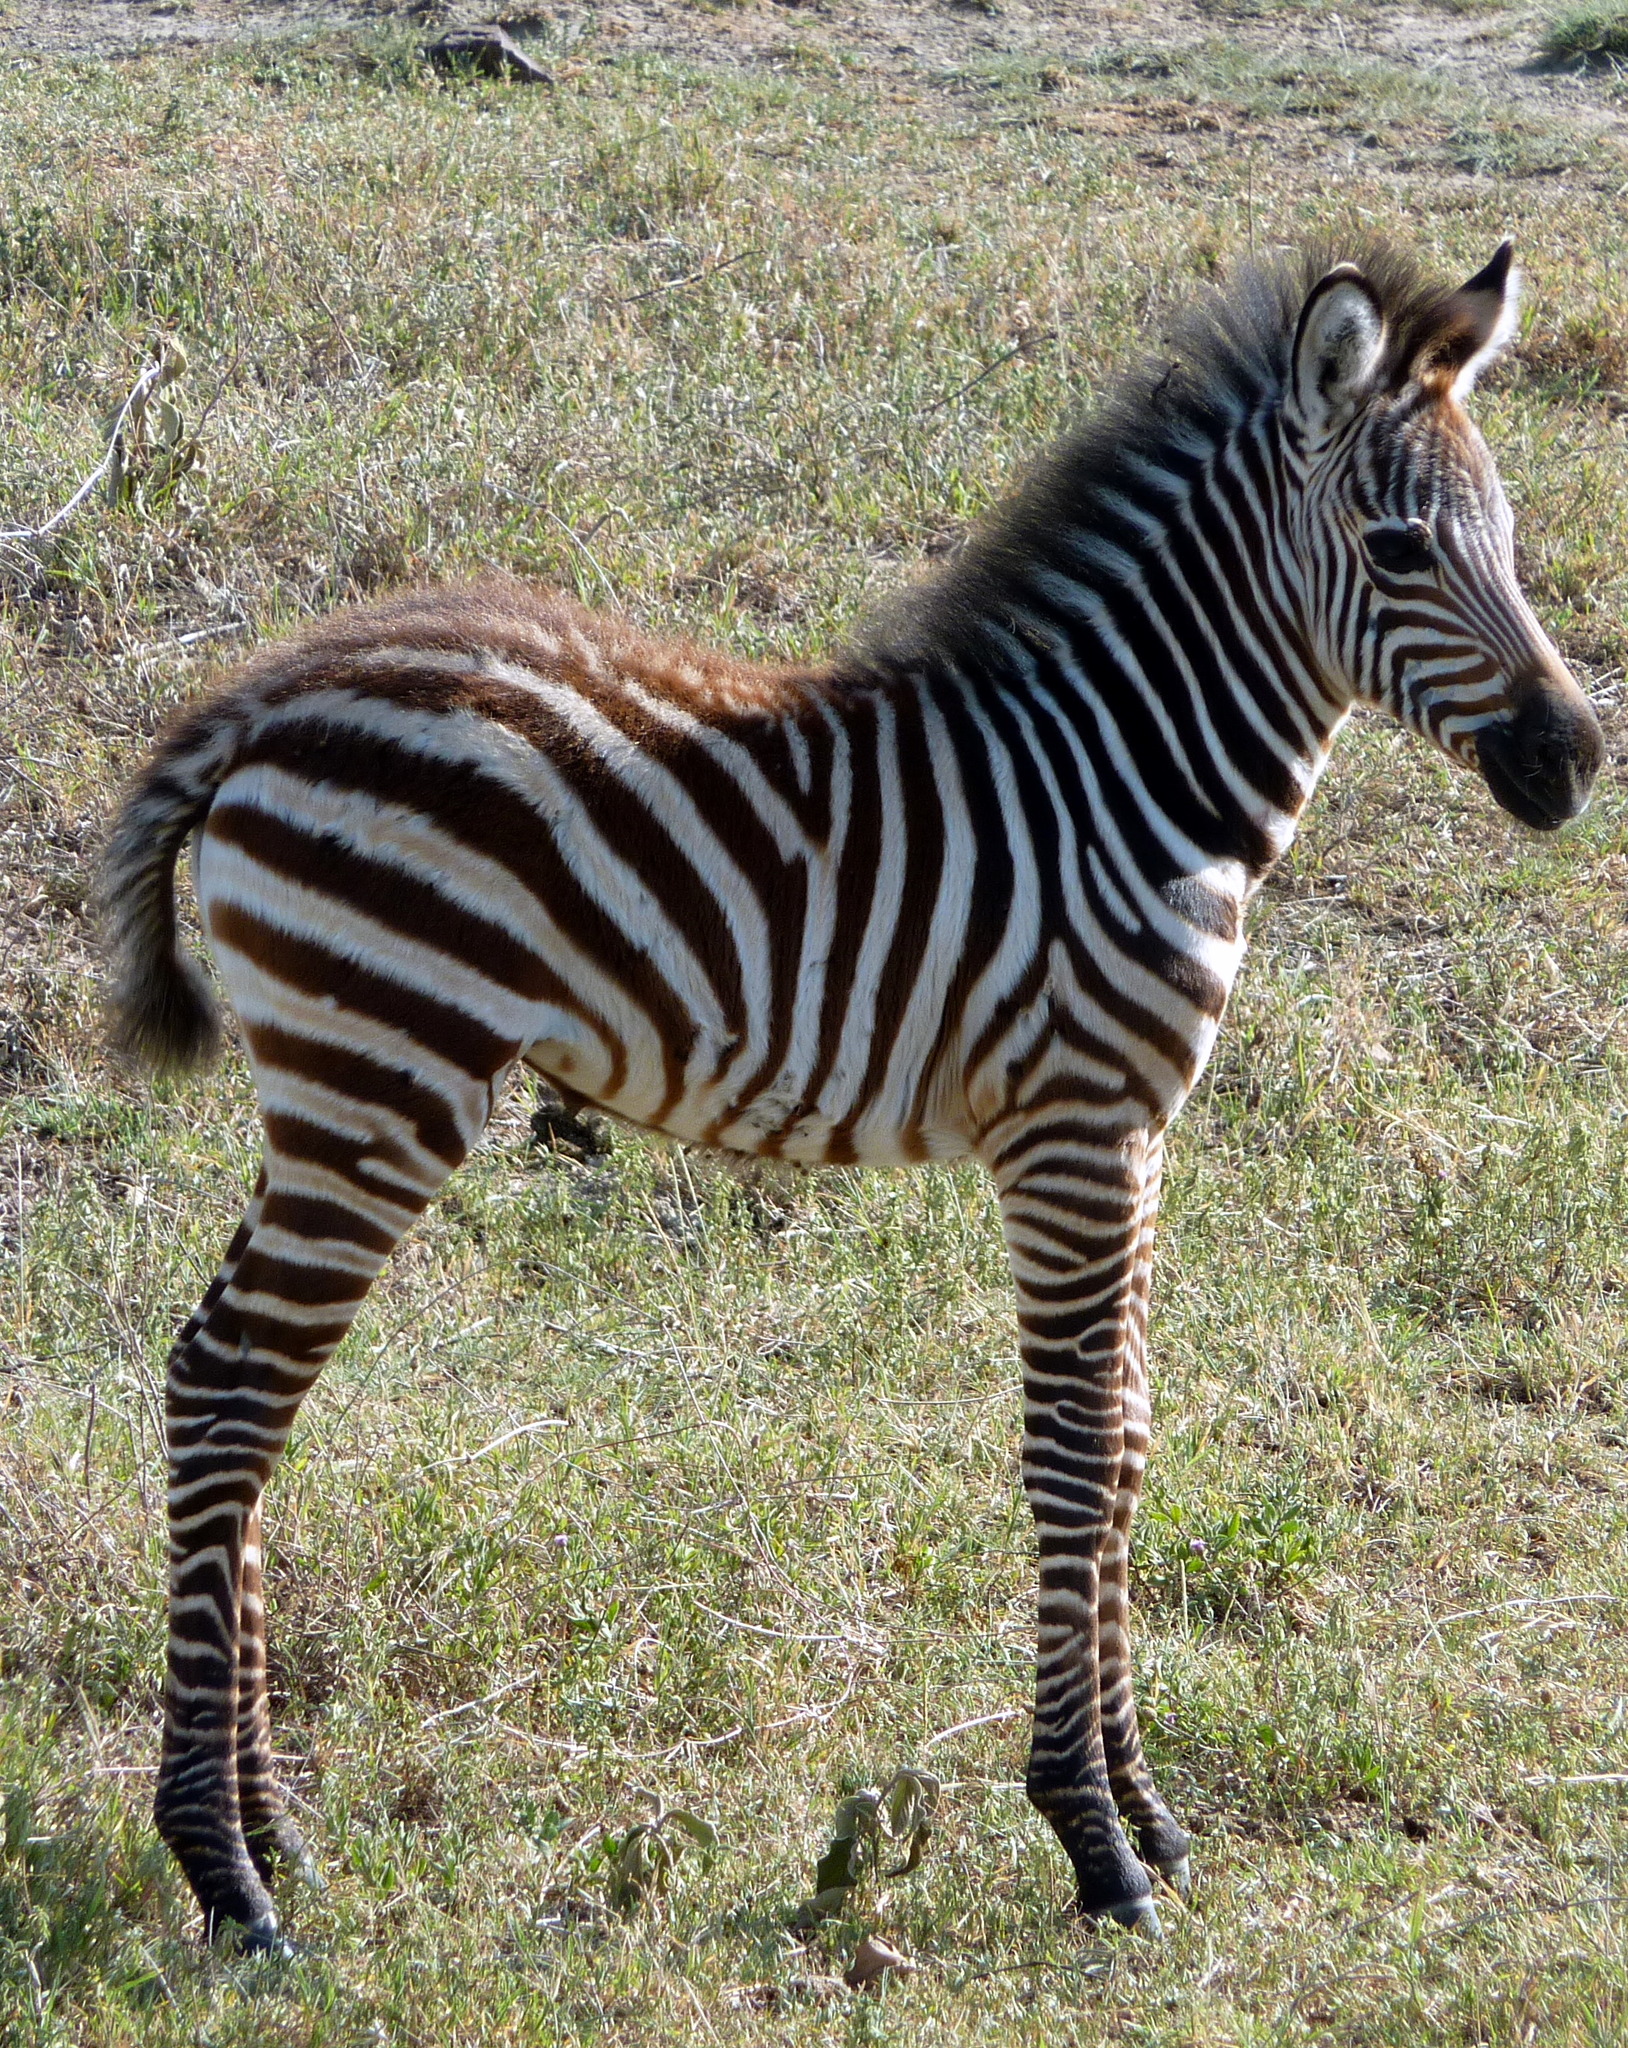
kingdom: Animalia
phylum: Chordata
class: Mammalia
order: Perissodactyla
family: Equidae
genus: Equus
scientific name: Equus quagga
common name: Plains zebra
